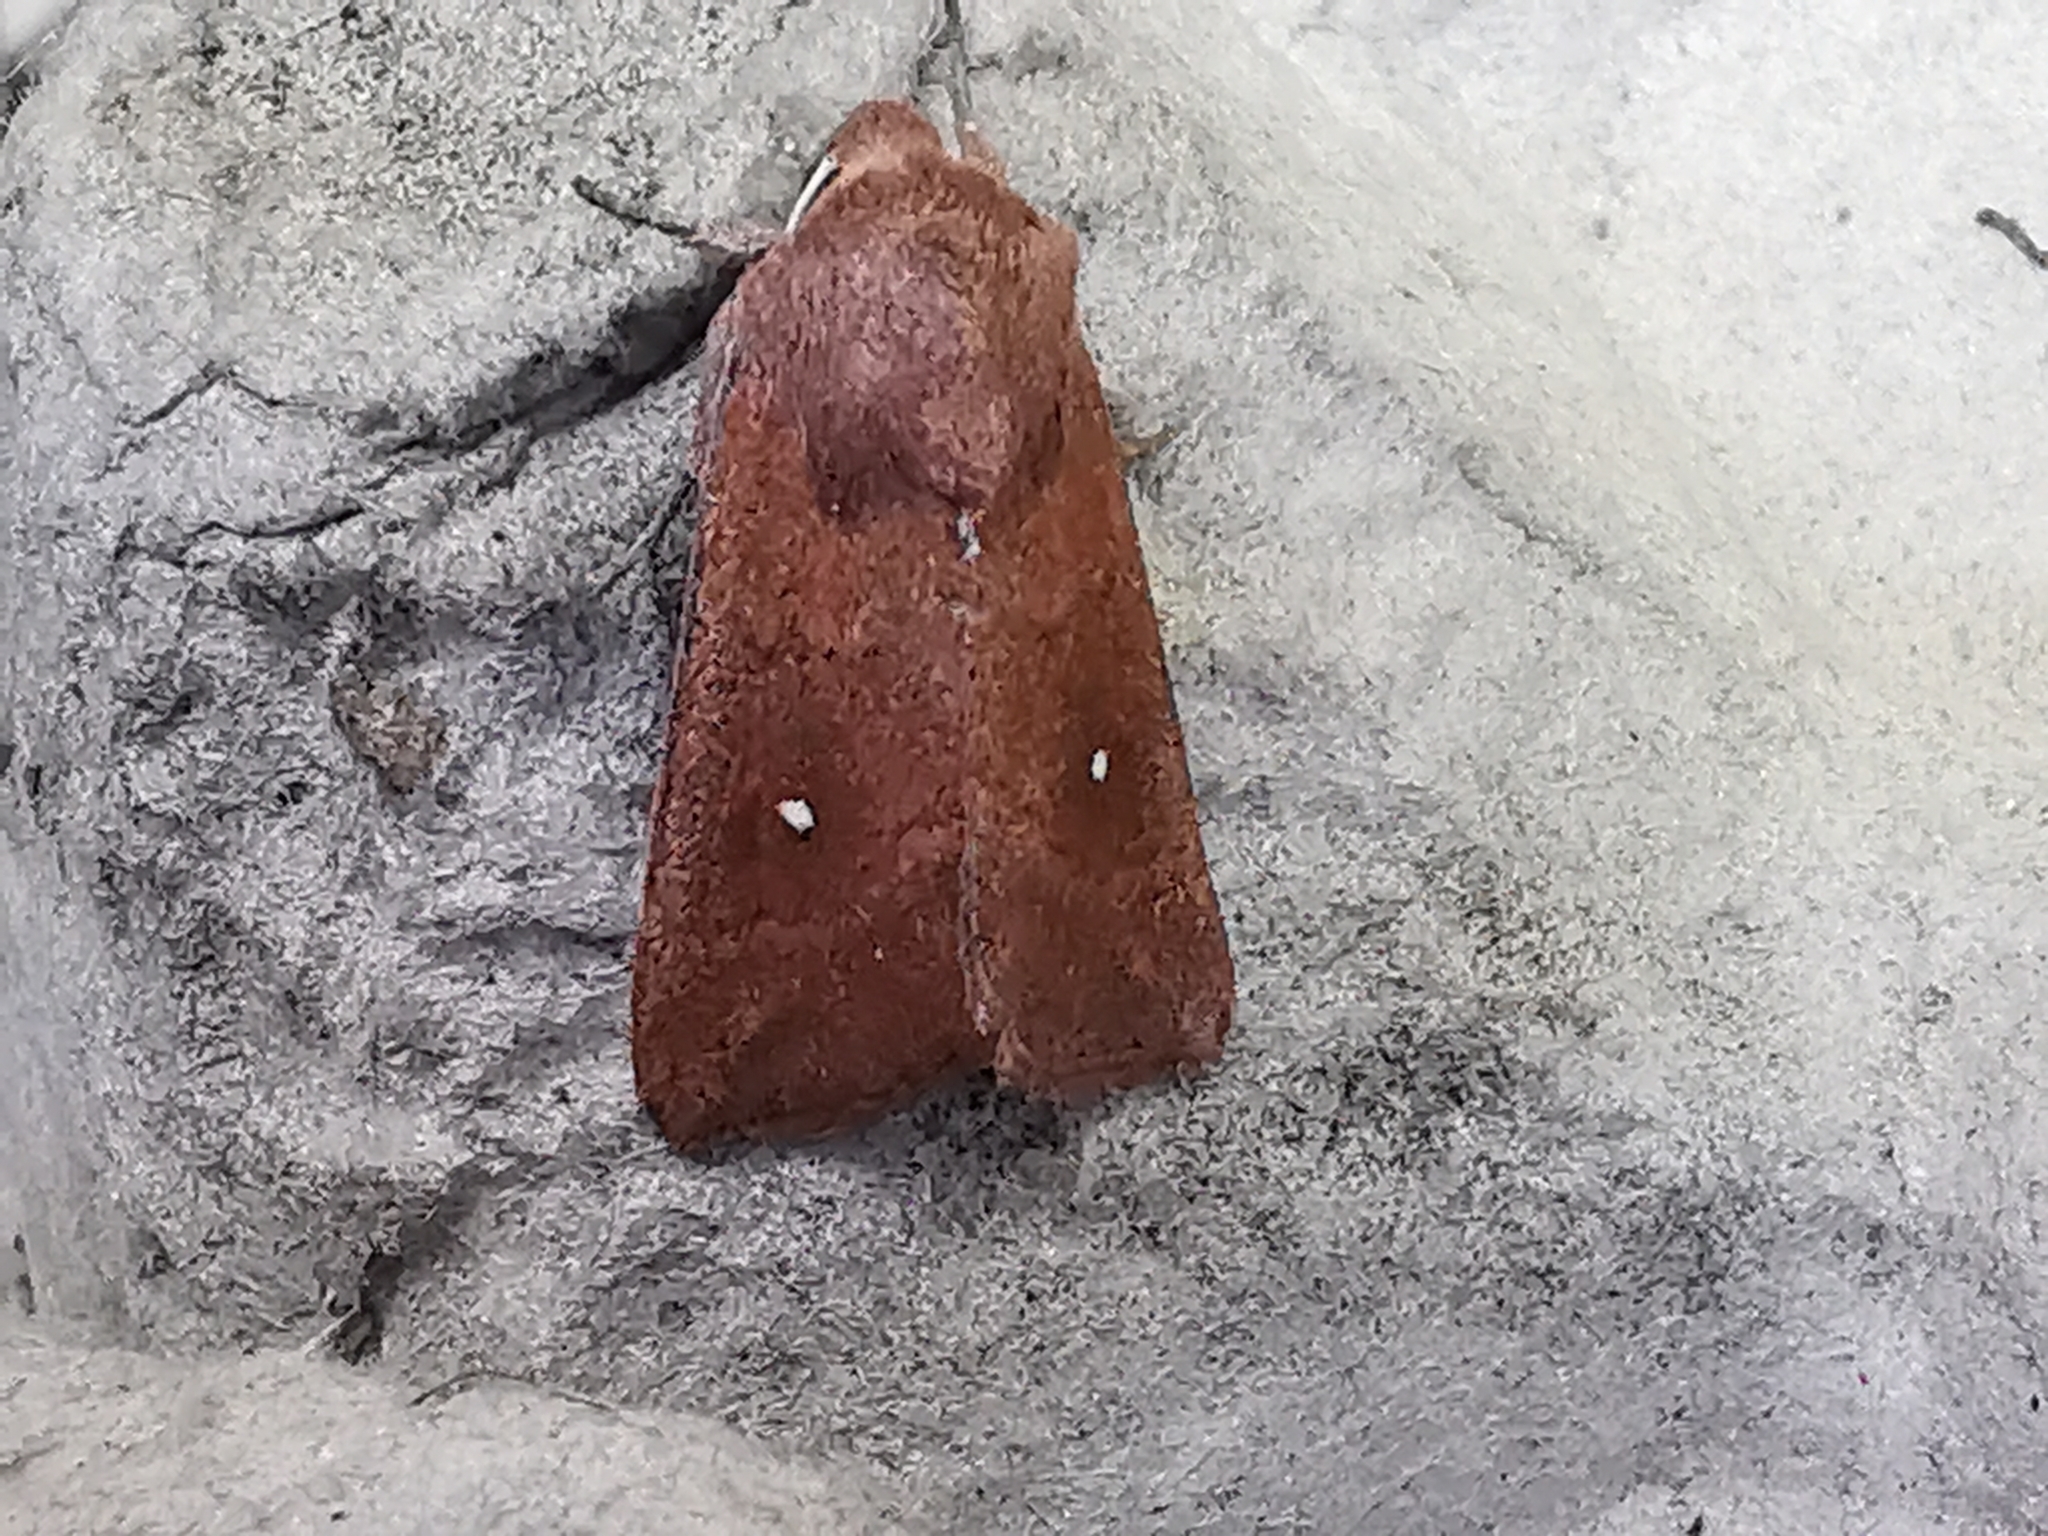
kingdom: Animalia
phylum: Arthropoda
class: Insecta
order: Lepidoptera
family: Noctuidae
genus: Mythimna
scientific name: Mythimna albipuncta
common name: White-point
